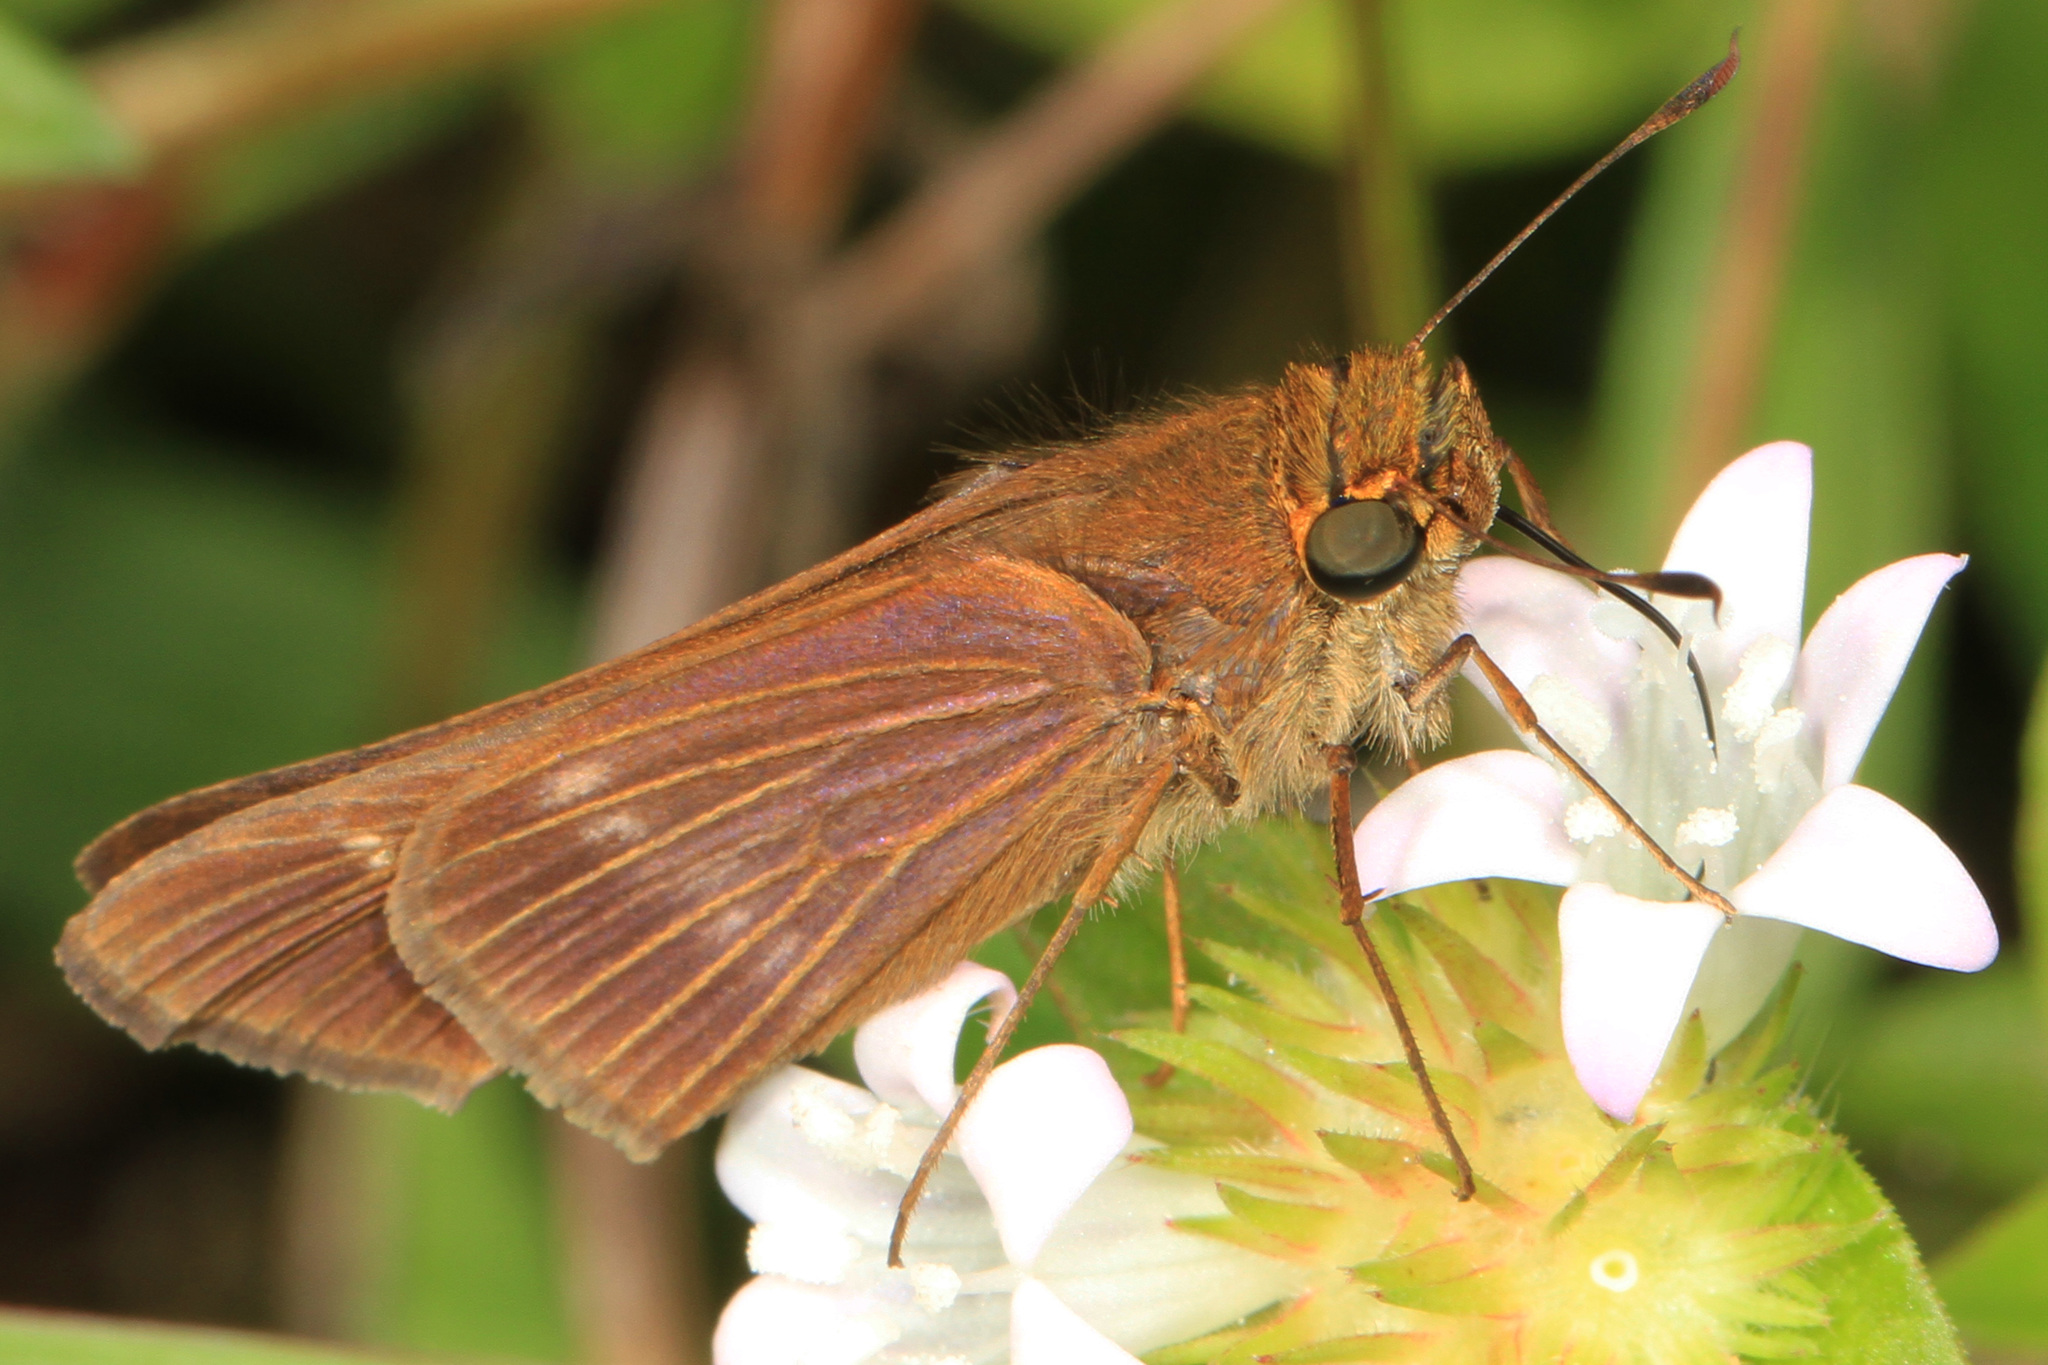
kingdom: Animalia
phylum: Arthropoda
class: Insecta
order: Lepidoptera
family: Hesperiidae
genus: Panoquina
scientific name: Panoquina ocola
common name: Ocola skipper
